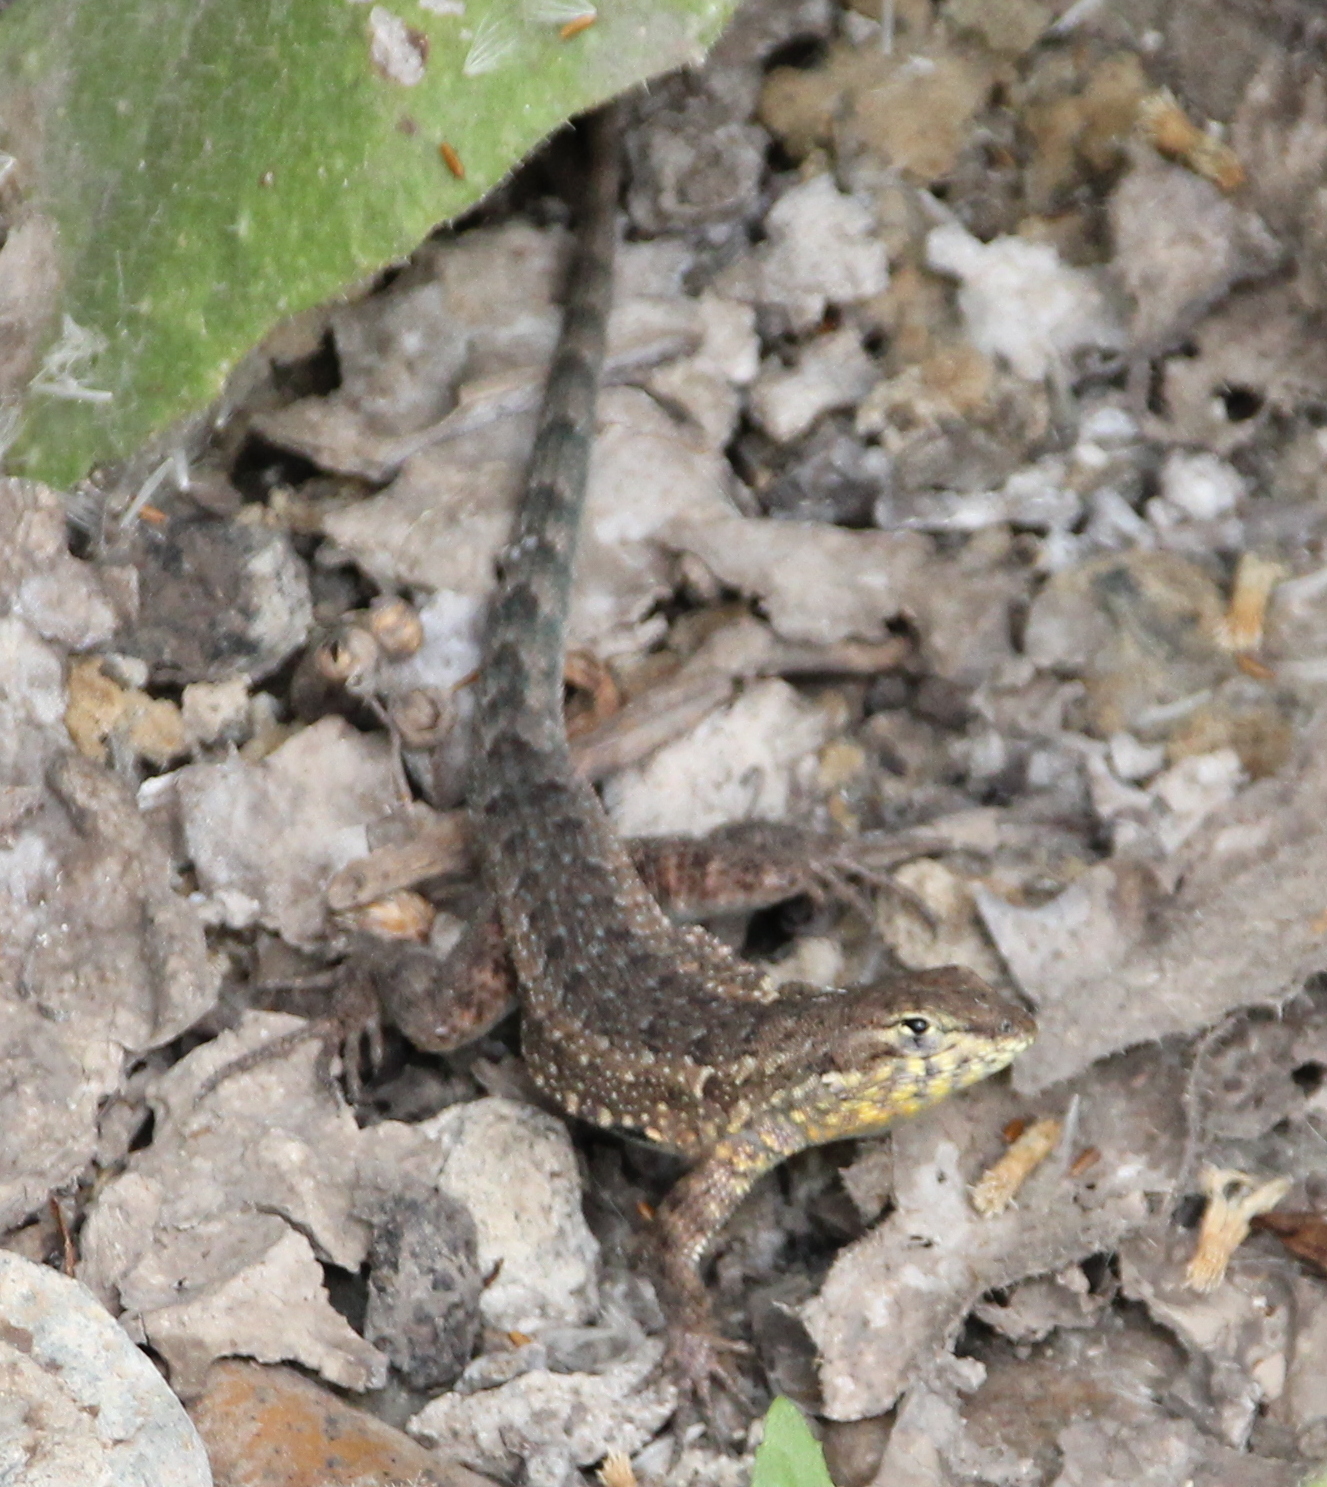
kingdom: Animalia
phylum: Chordata
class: Squamata
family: Phrynosomatidae
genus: Uta
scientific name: Uta stansburiana
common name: Side-blotched lizard
